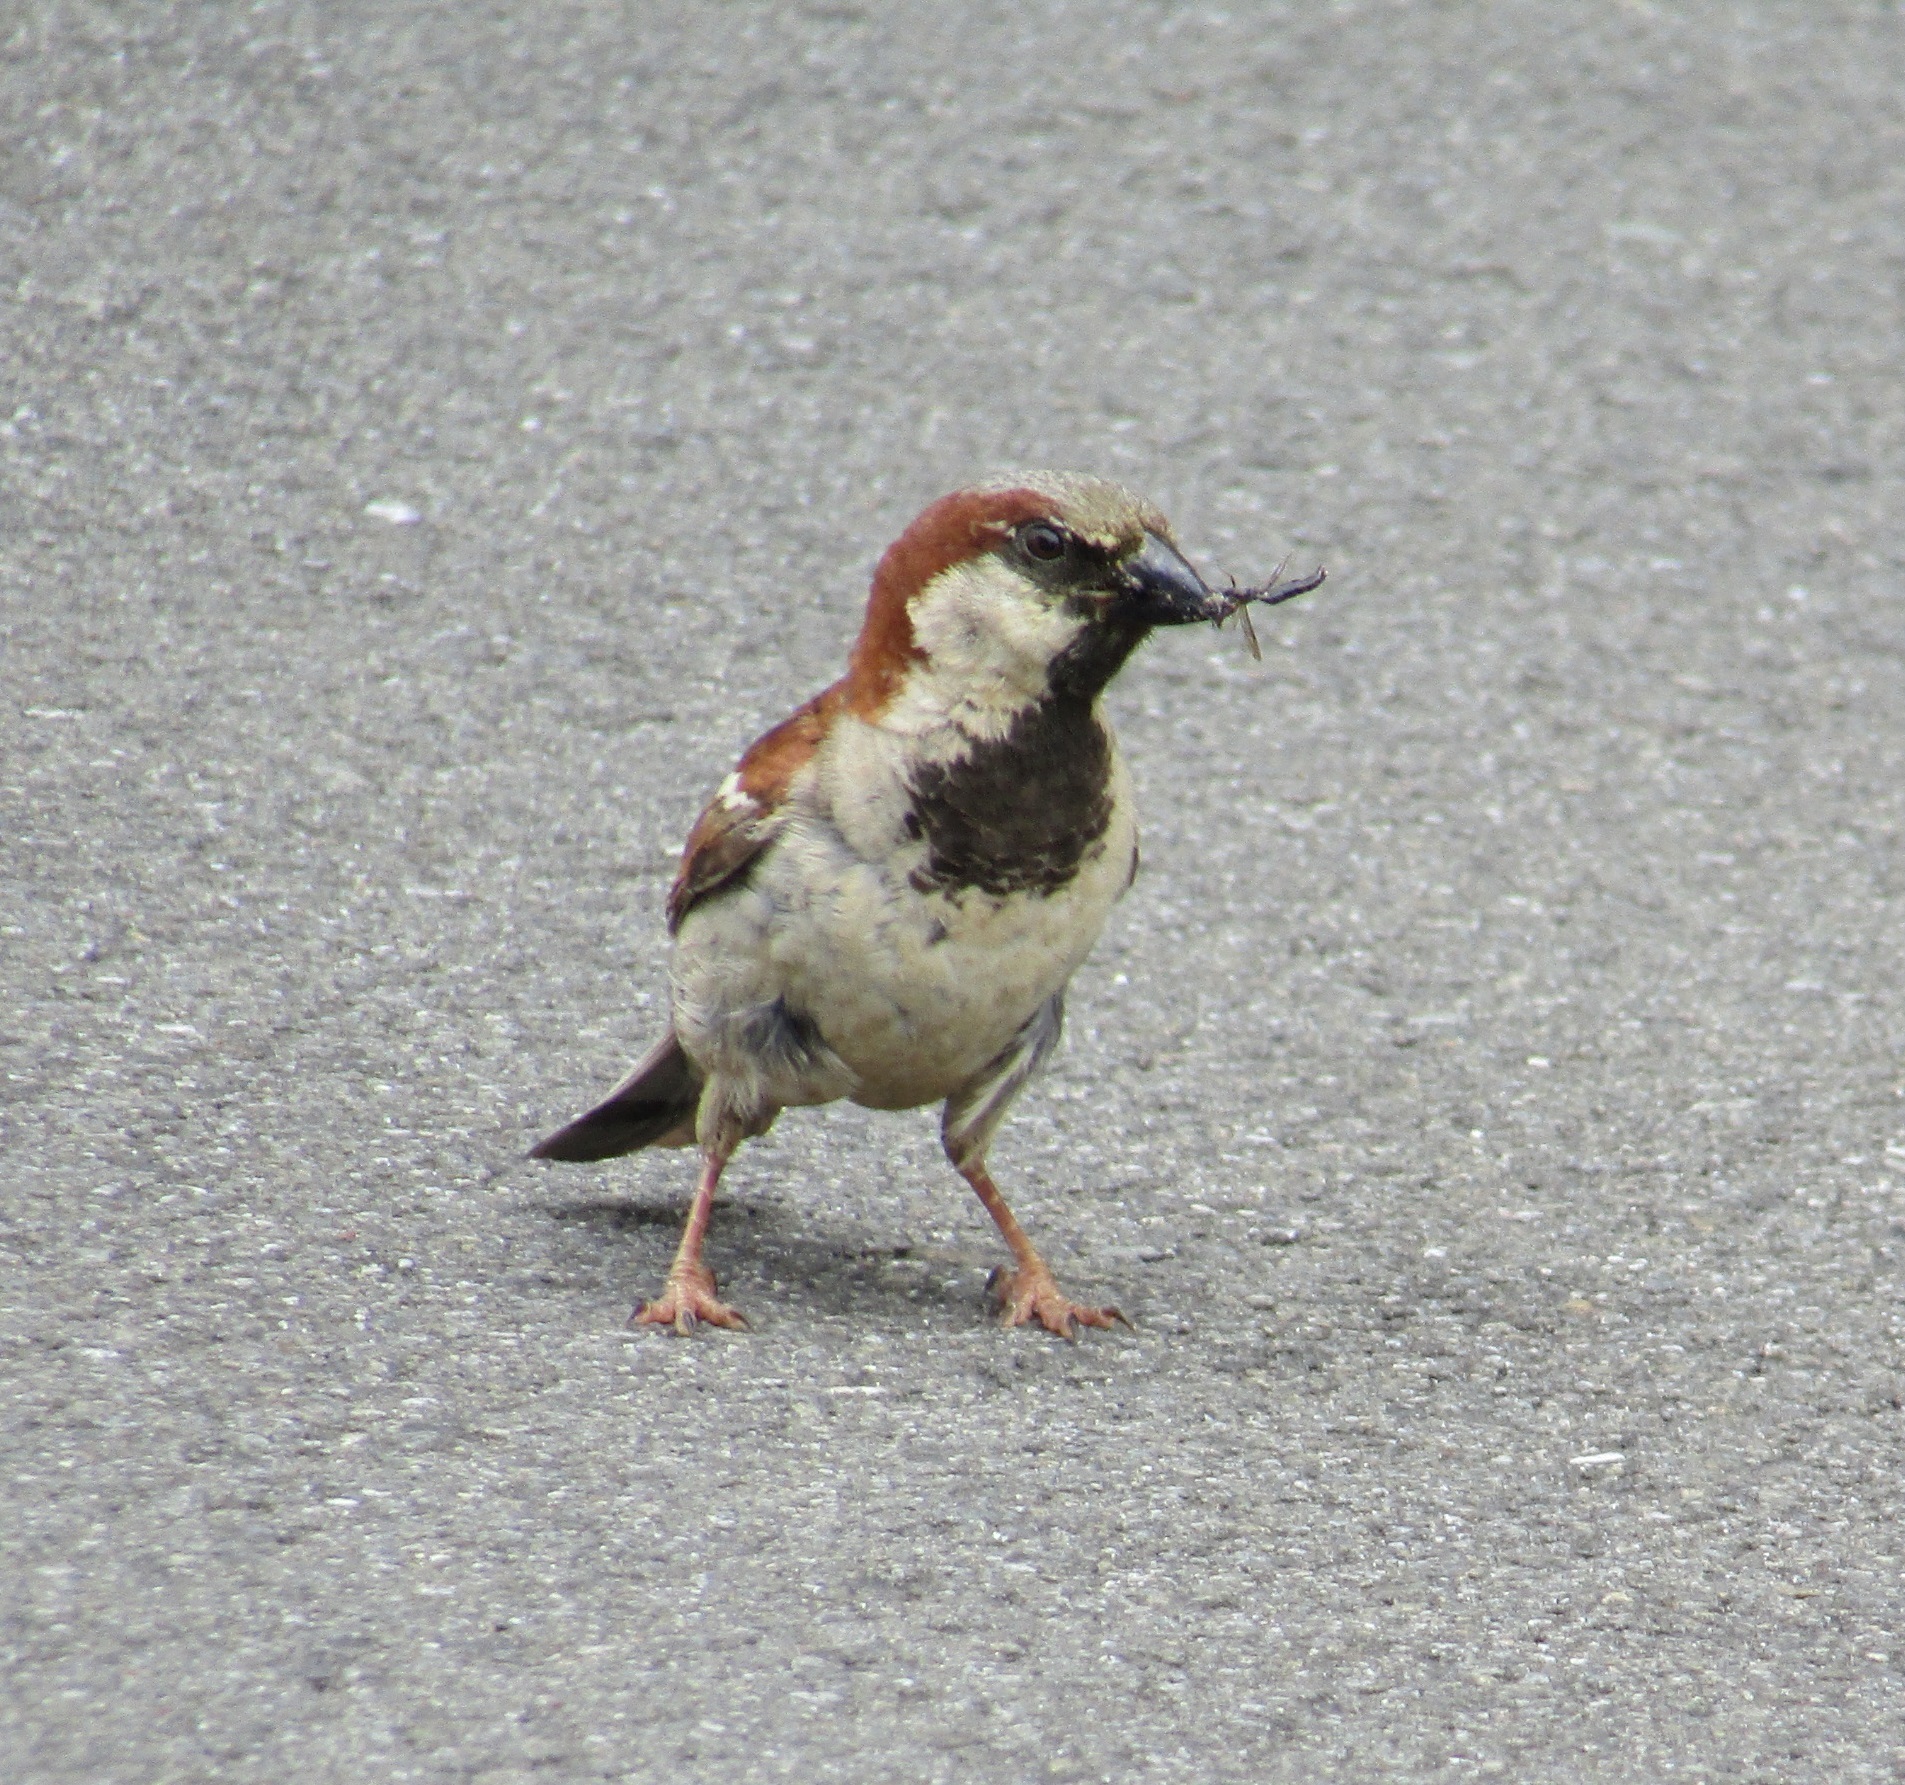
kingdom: Animalia
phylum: Chordata
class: Aves
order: Passeriformes
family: Passeridae
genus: Passer
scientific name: Passer domesticus
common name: House sparrow
